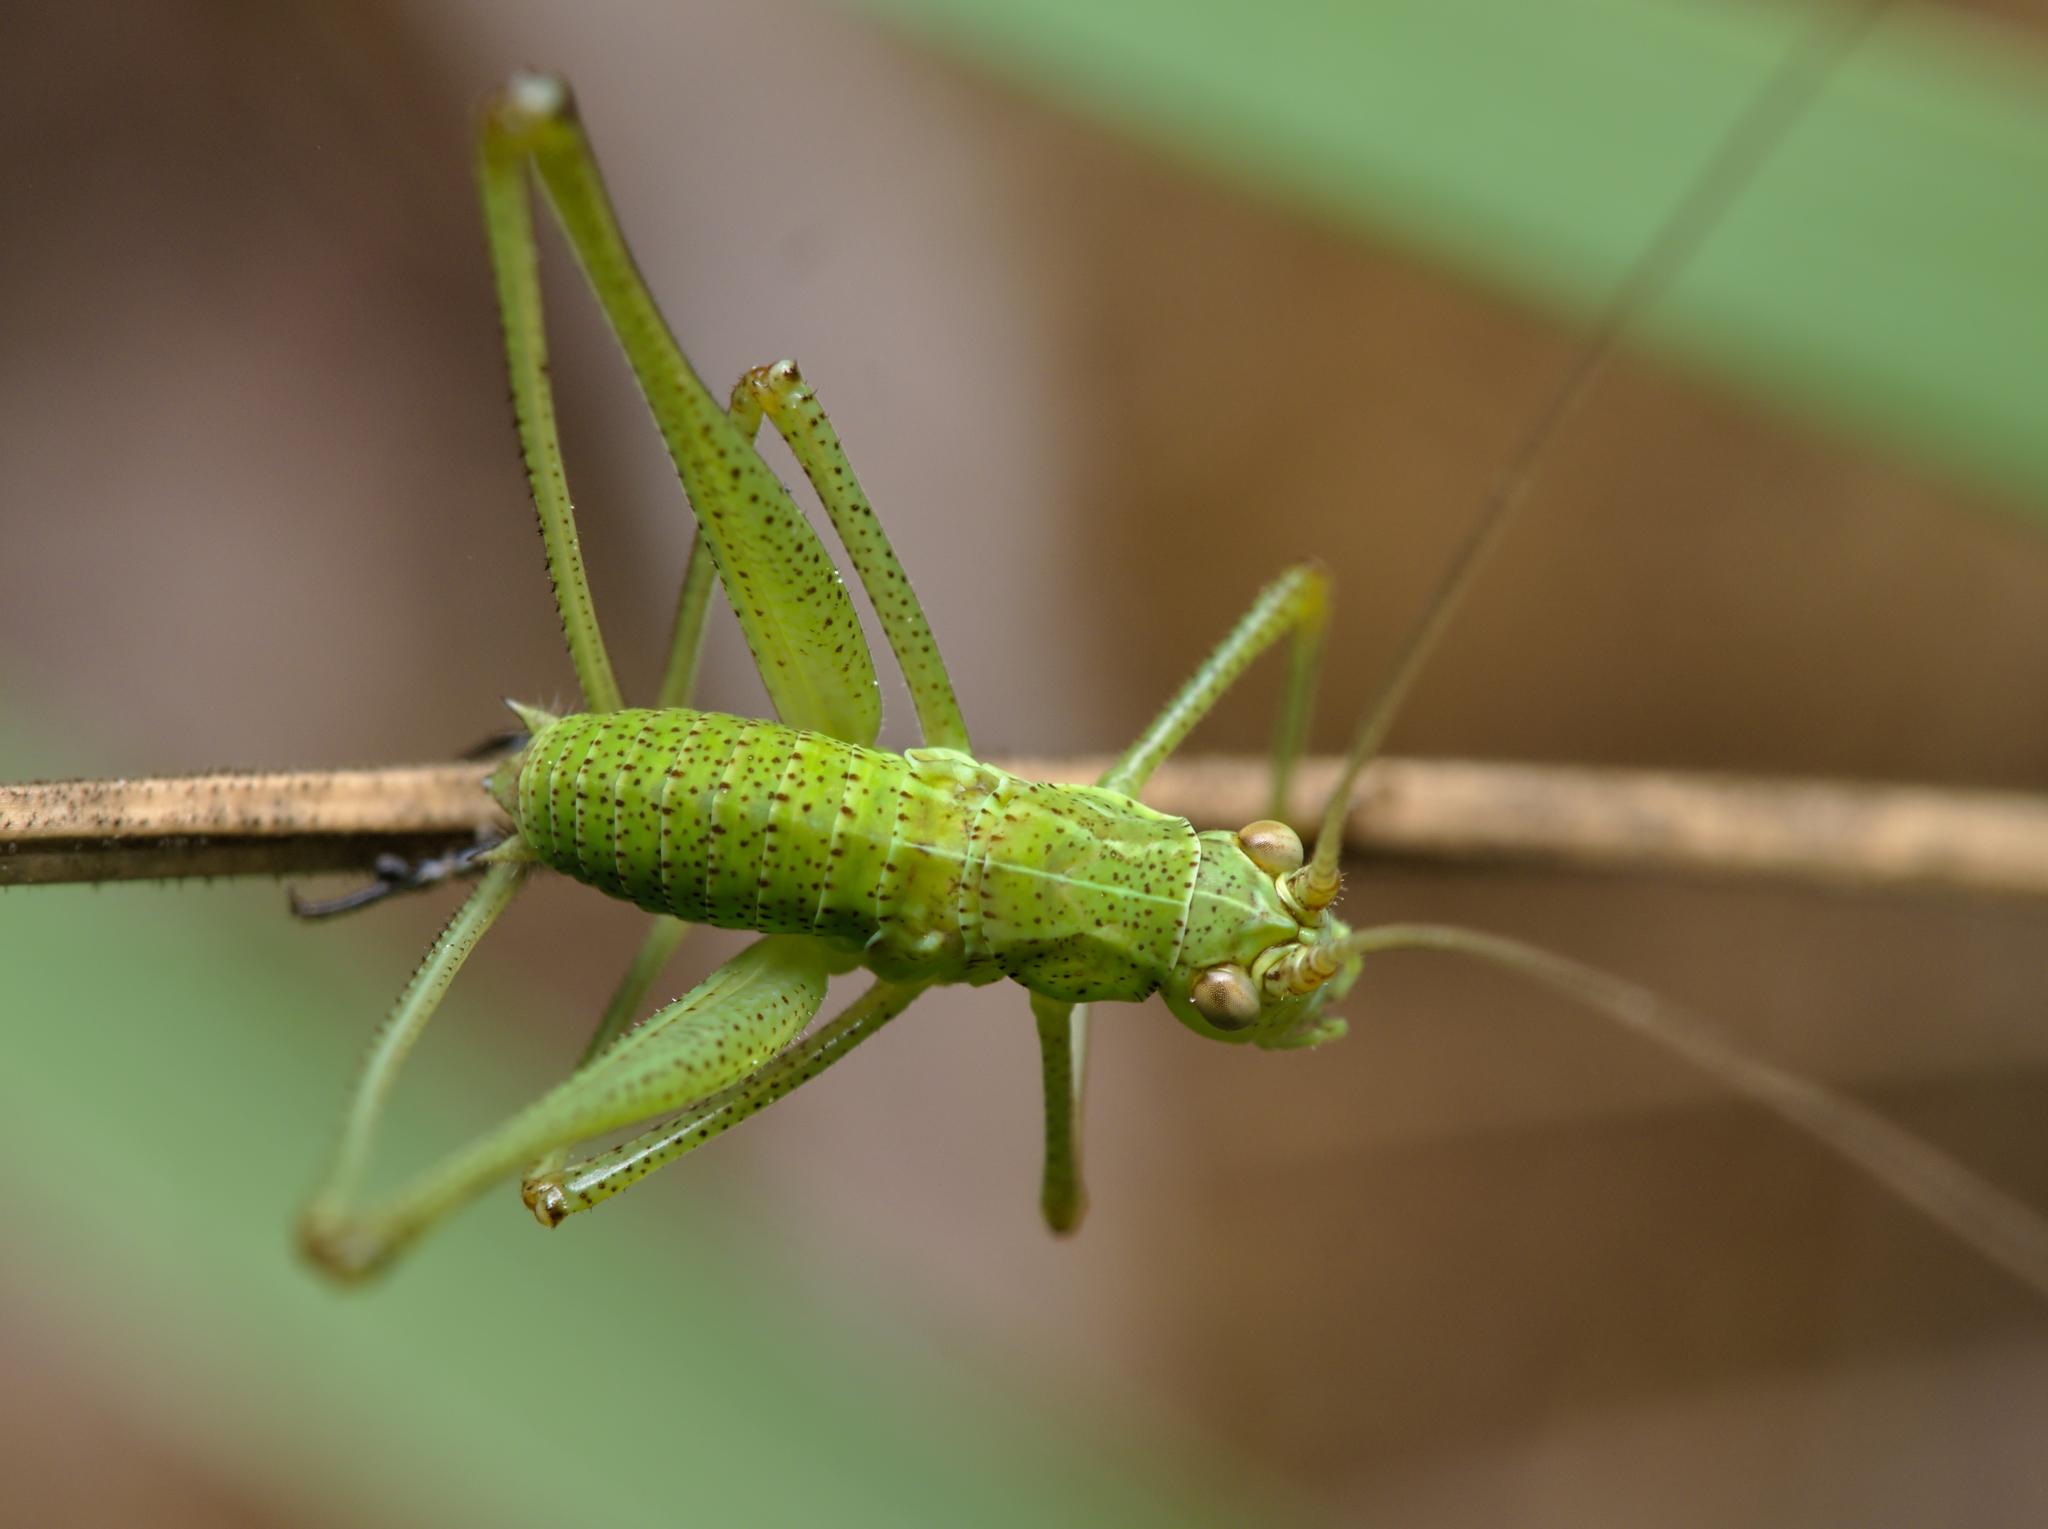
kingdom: Animalia
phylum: Arthropoda
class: Insecta
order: Orthoptera
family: Tettigoniidae
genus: Phaneroptera
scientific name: Phaneroptera falcata
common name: Sickle-bearing bush-cricket
